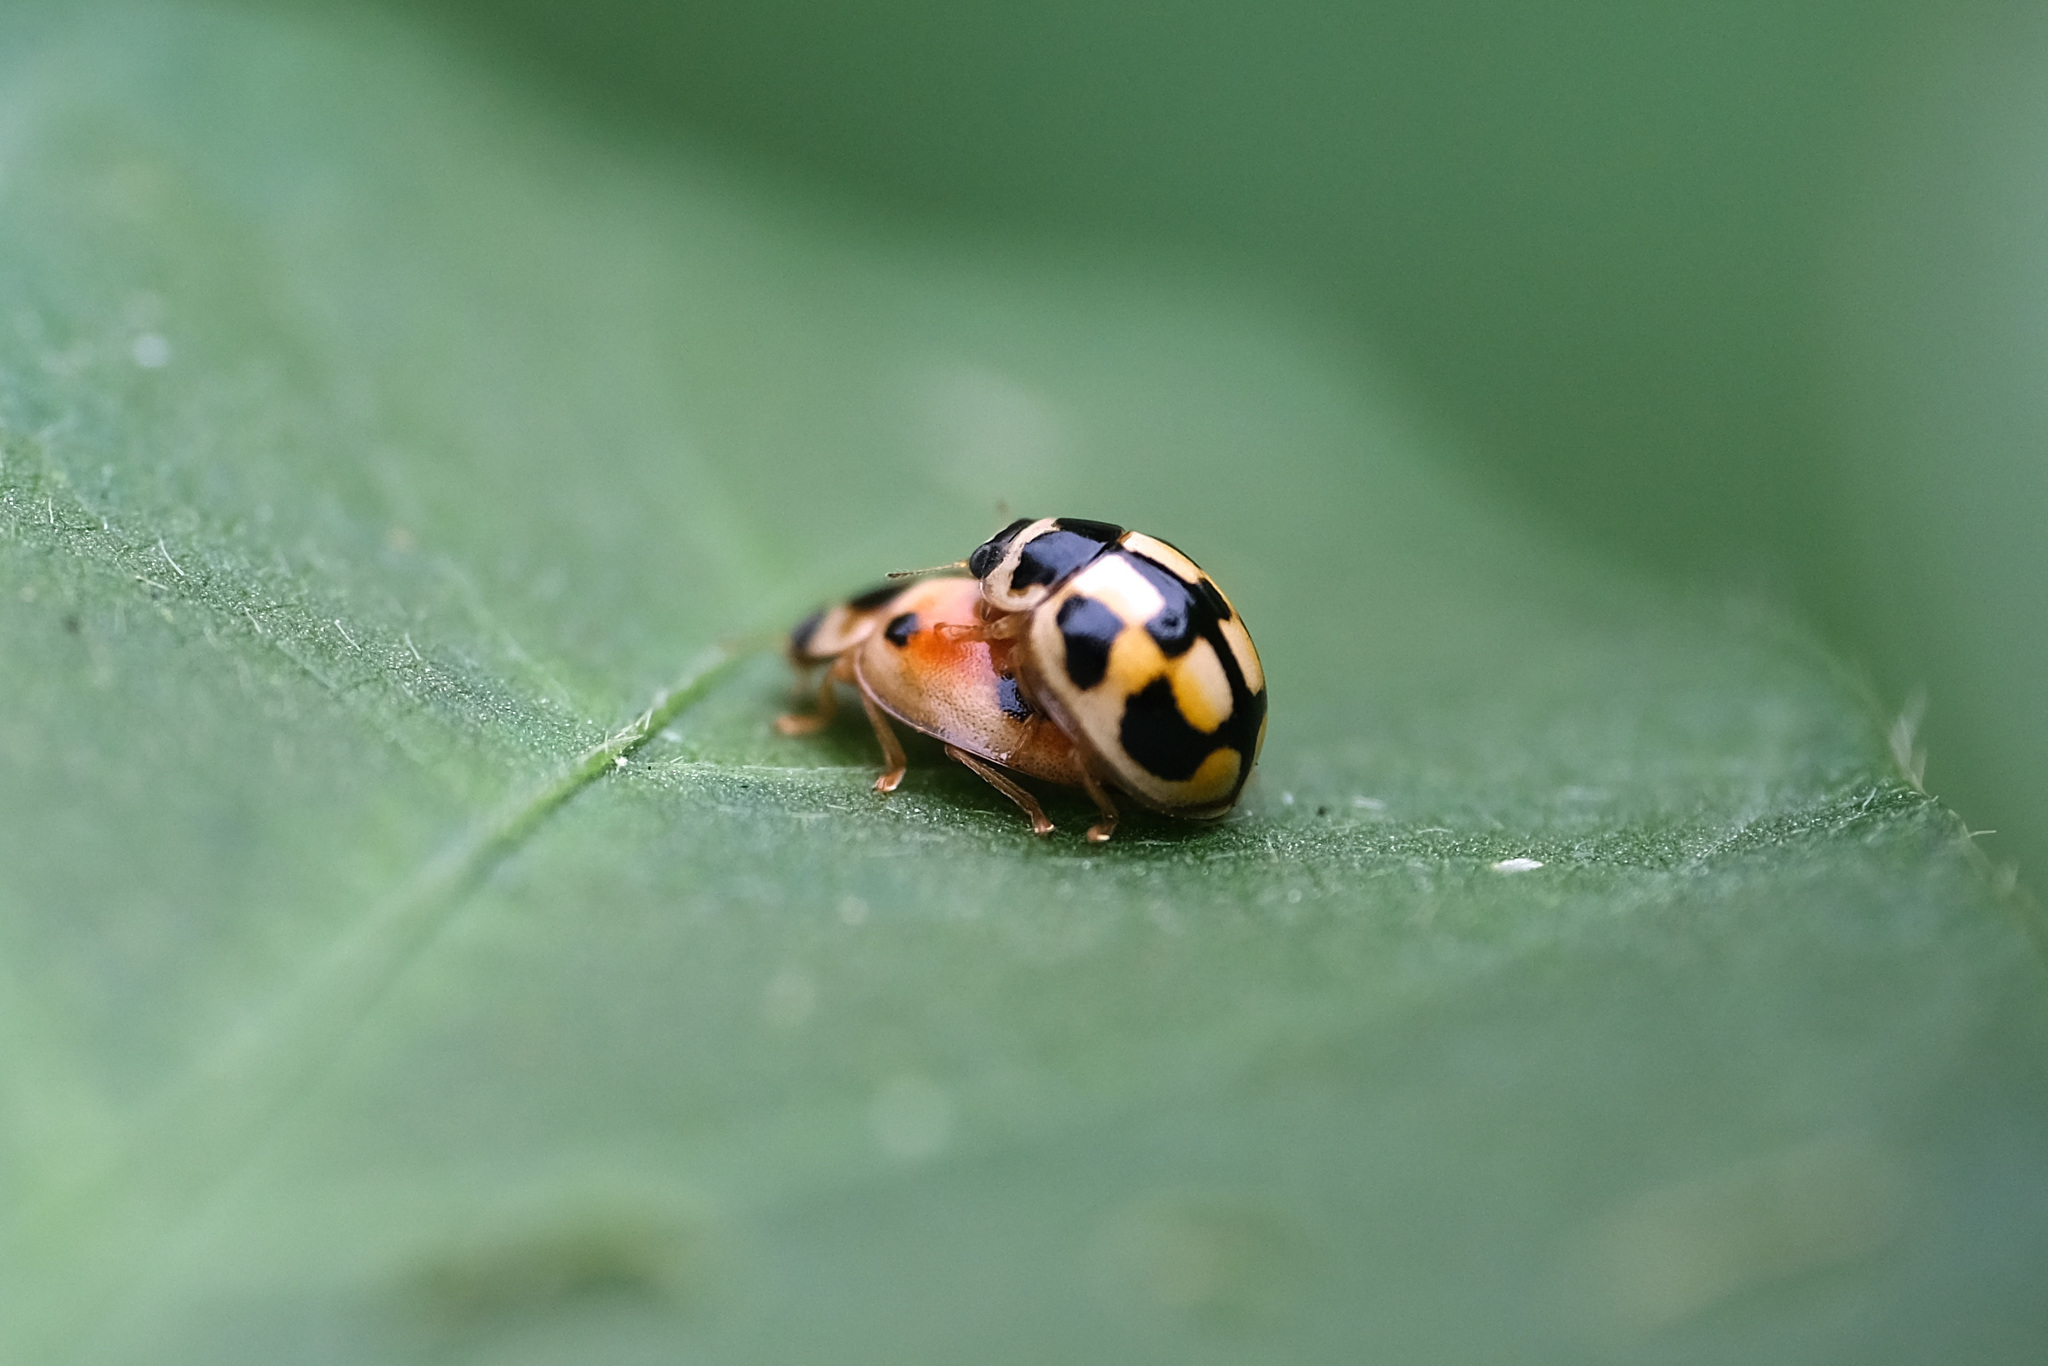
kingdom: Animalia
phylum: Arthropoda
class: Insecta
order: Coleoptera
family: Coccinellidae
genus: Propylea
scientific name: Propylea japonica
